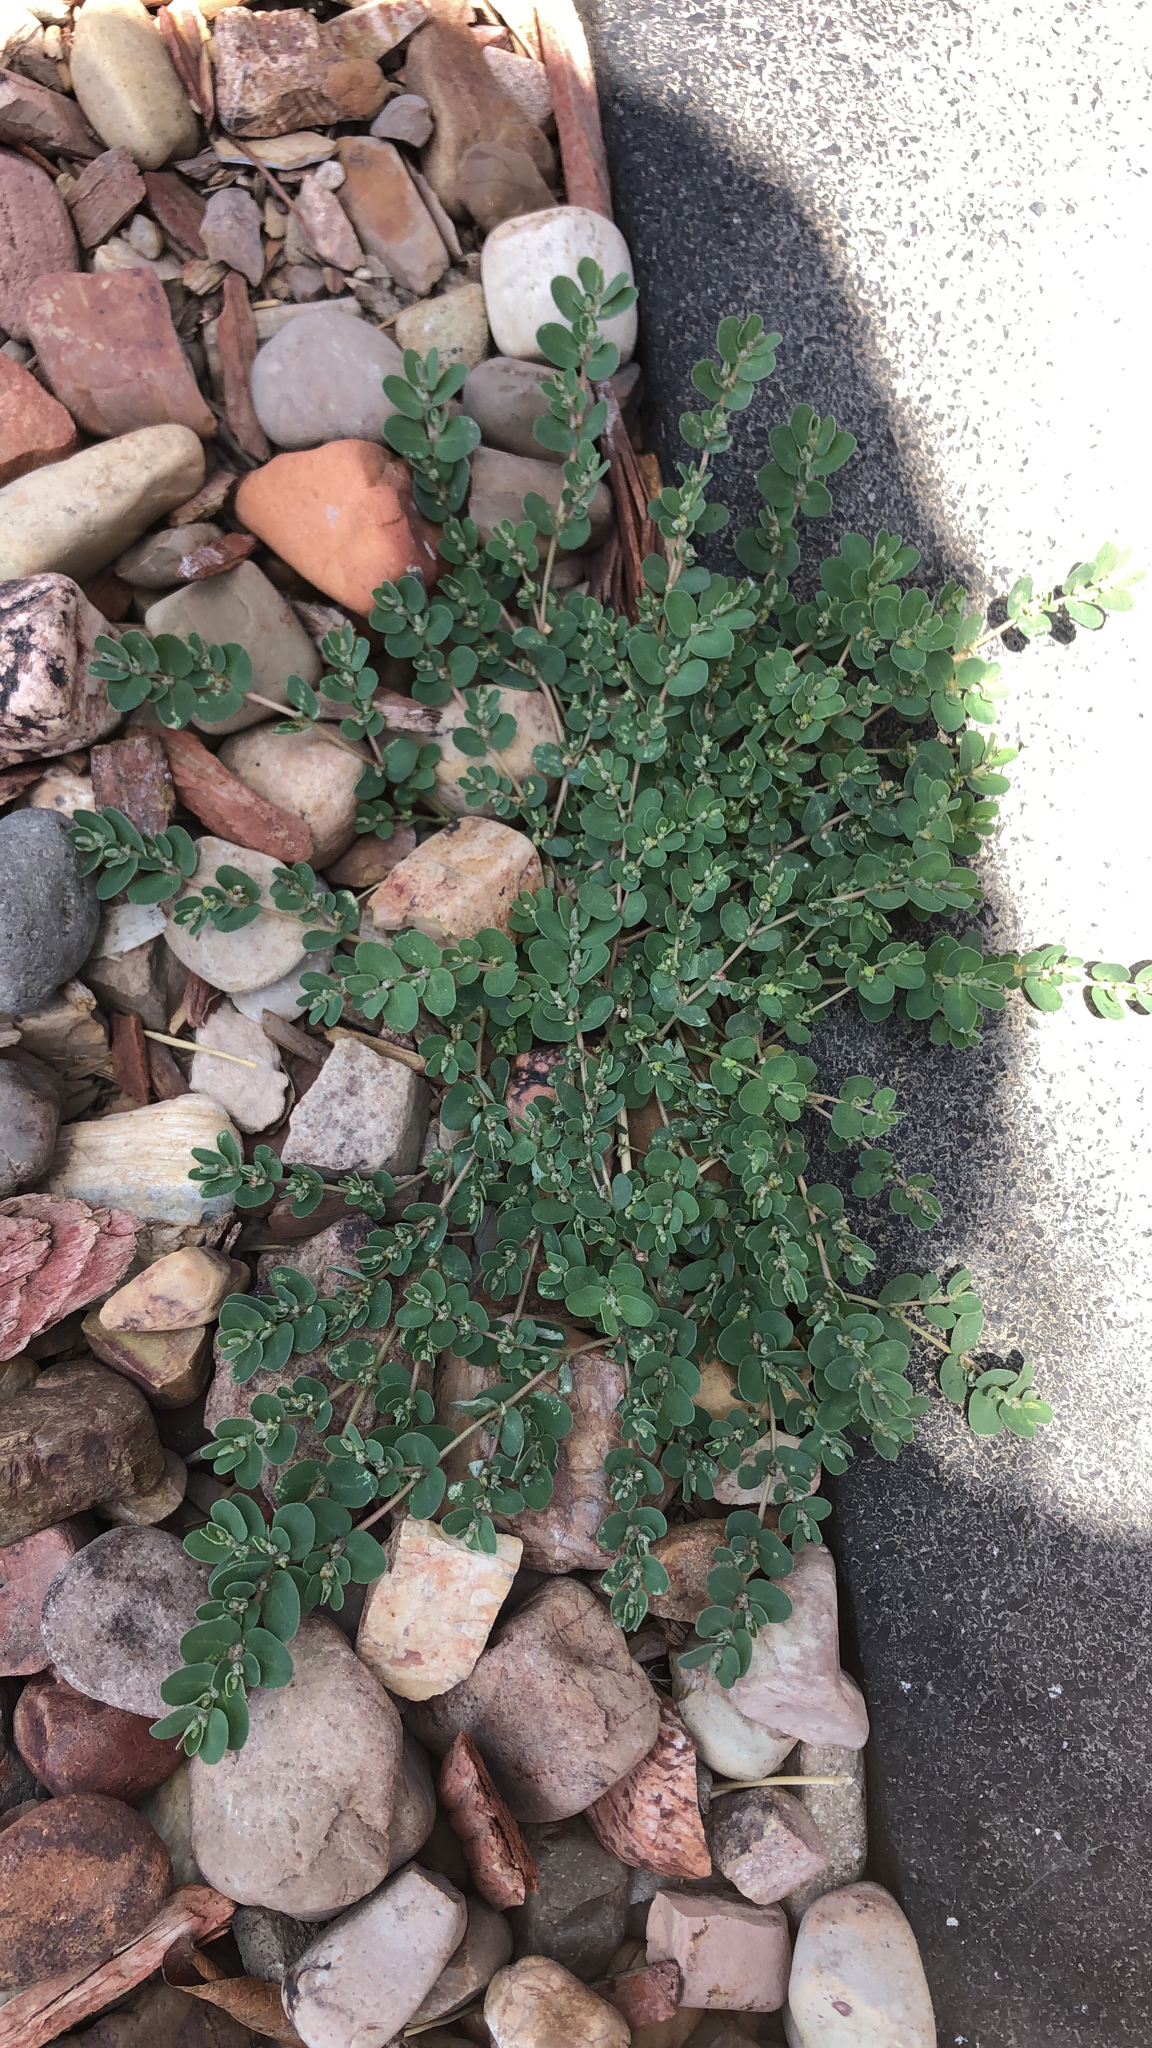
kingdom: Plantae
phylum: Tracheophyta
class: Magnoliopsida
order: Malpighiales
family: Euphorbiaceae
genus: Euphorbia
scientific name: Euphorbia prostrata
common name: Prostrate sandmat
